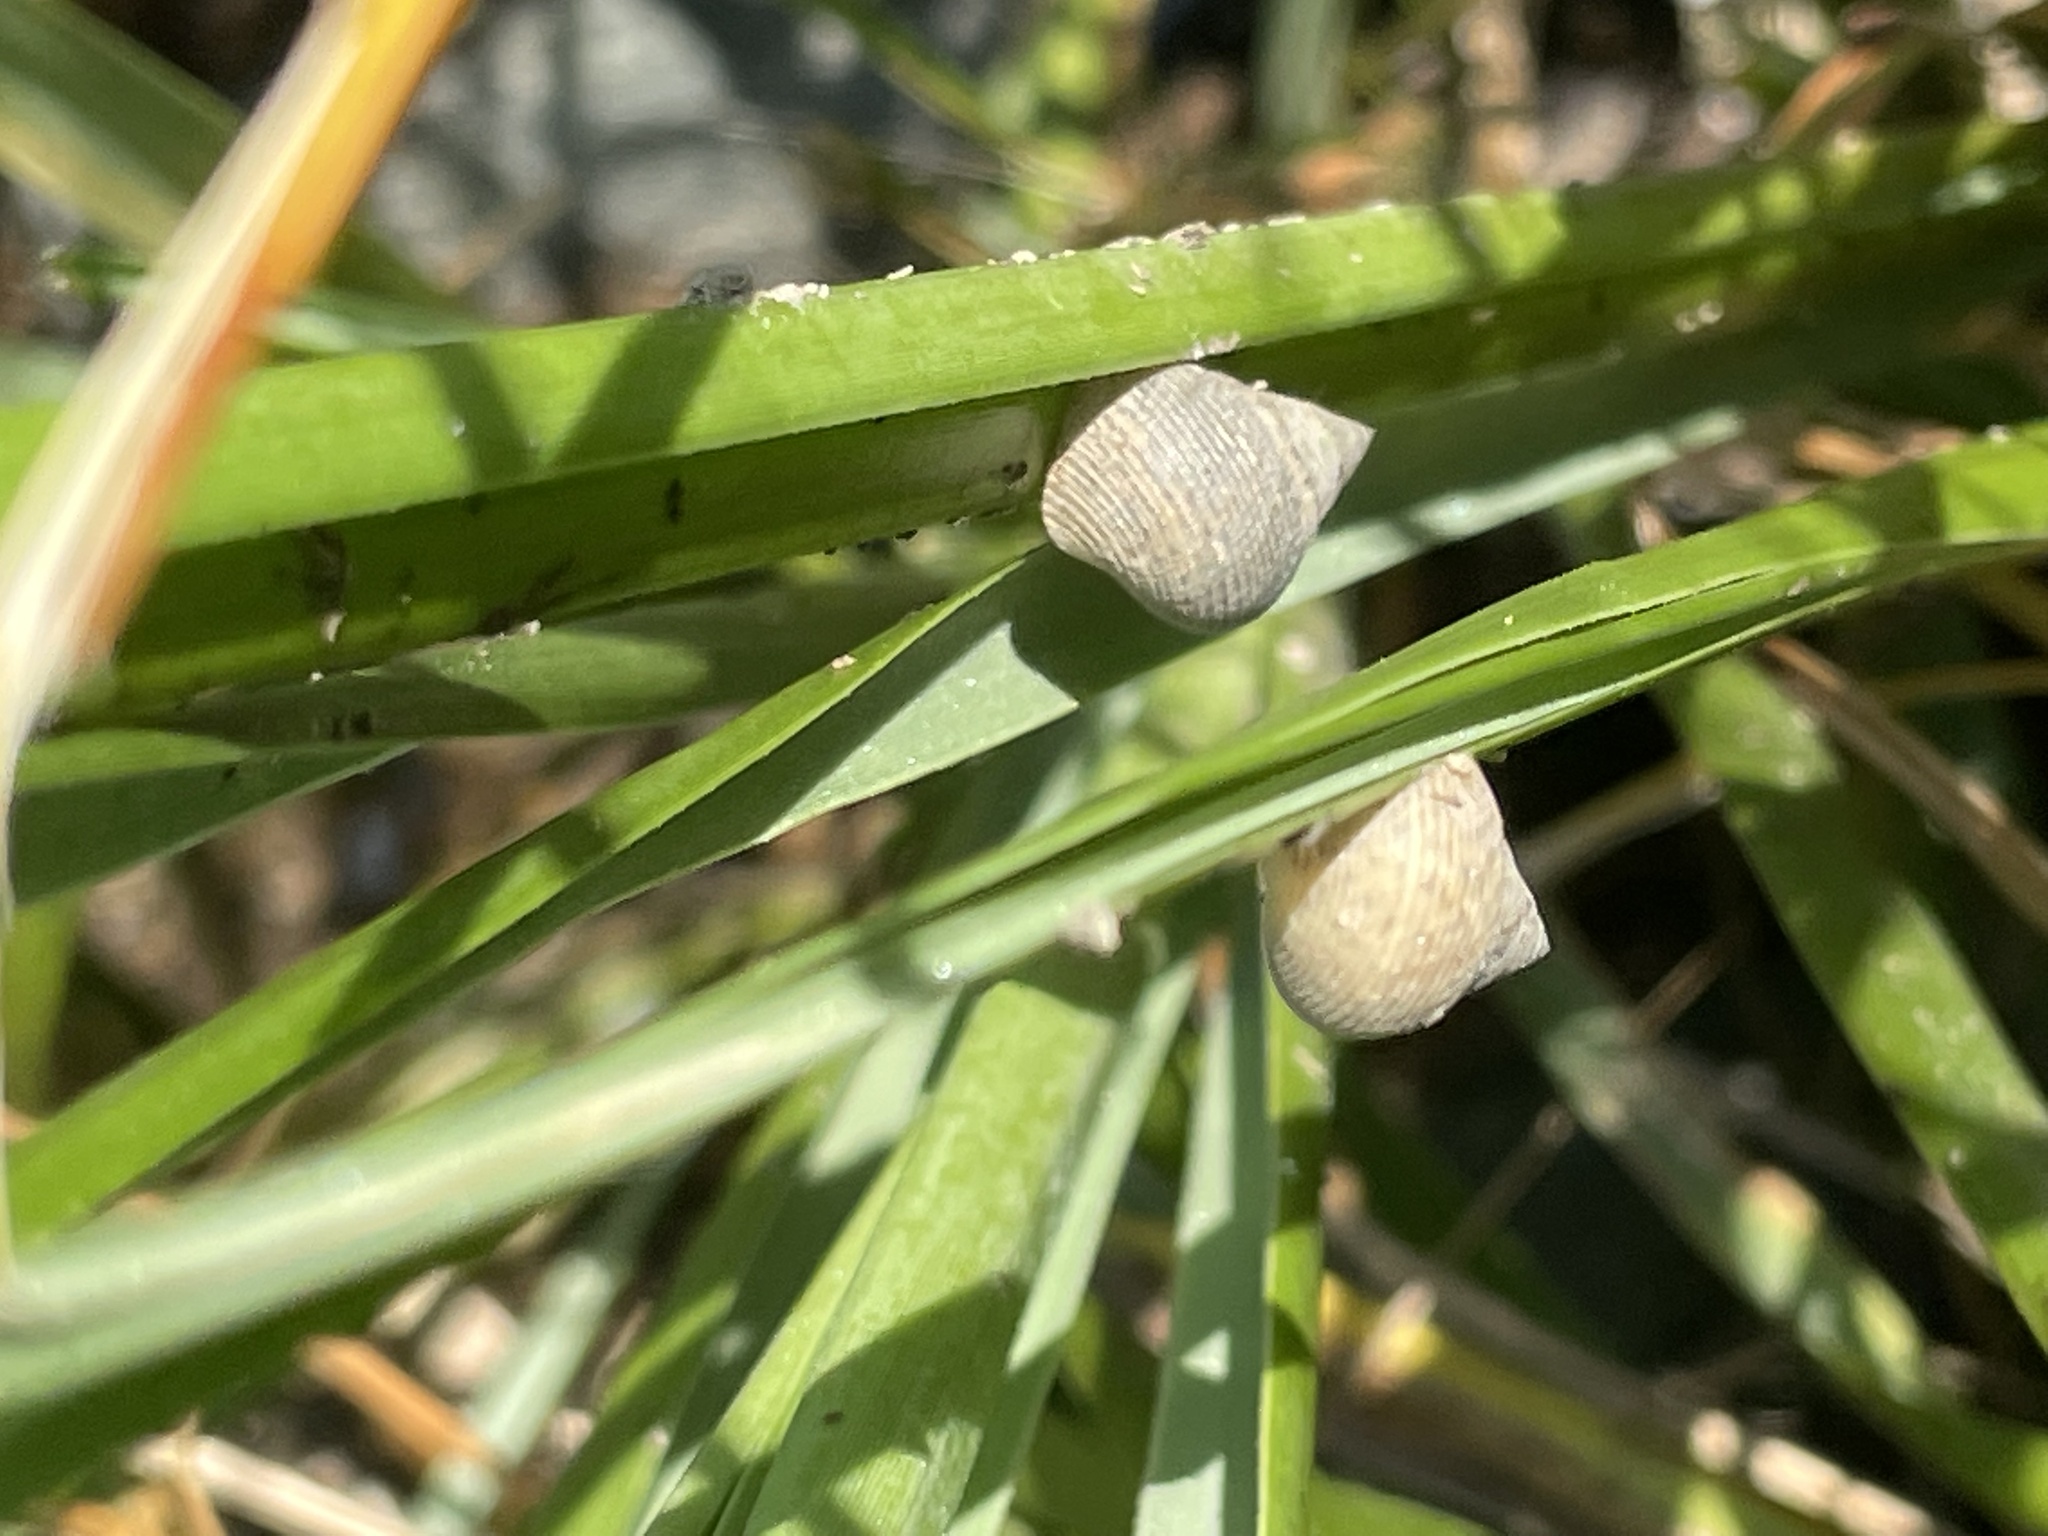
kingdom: Animalia
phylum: Mollusca
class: Gastropoda
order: Littorinimorpha
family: Littorinidae
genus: Littoraria
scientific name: Littoraria irrorata
